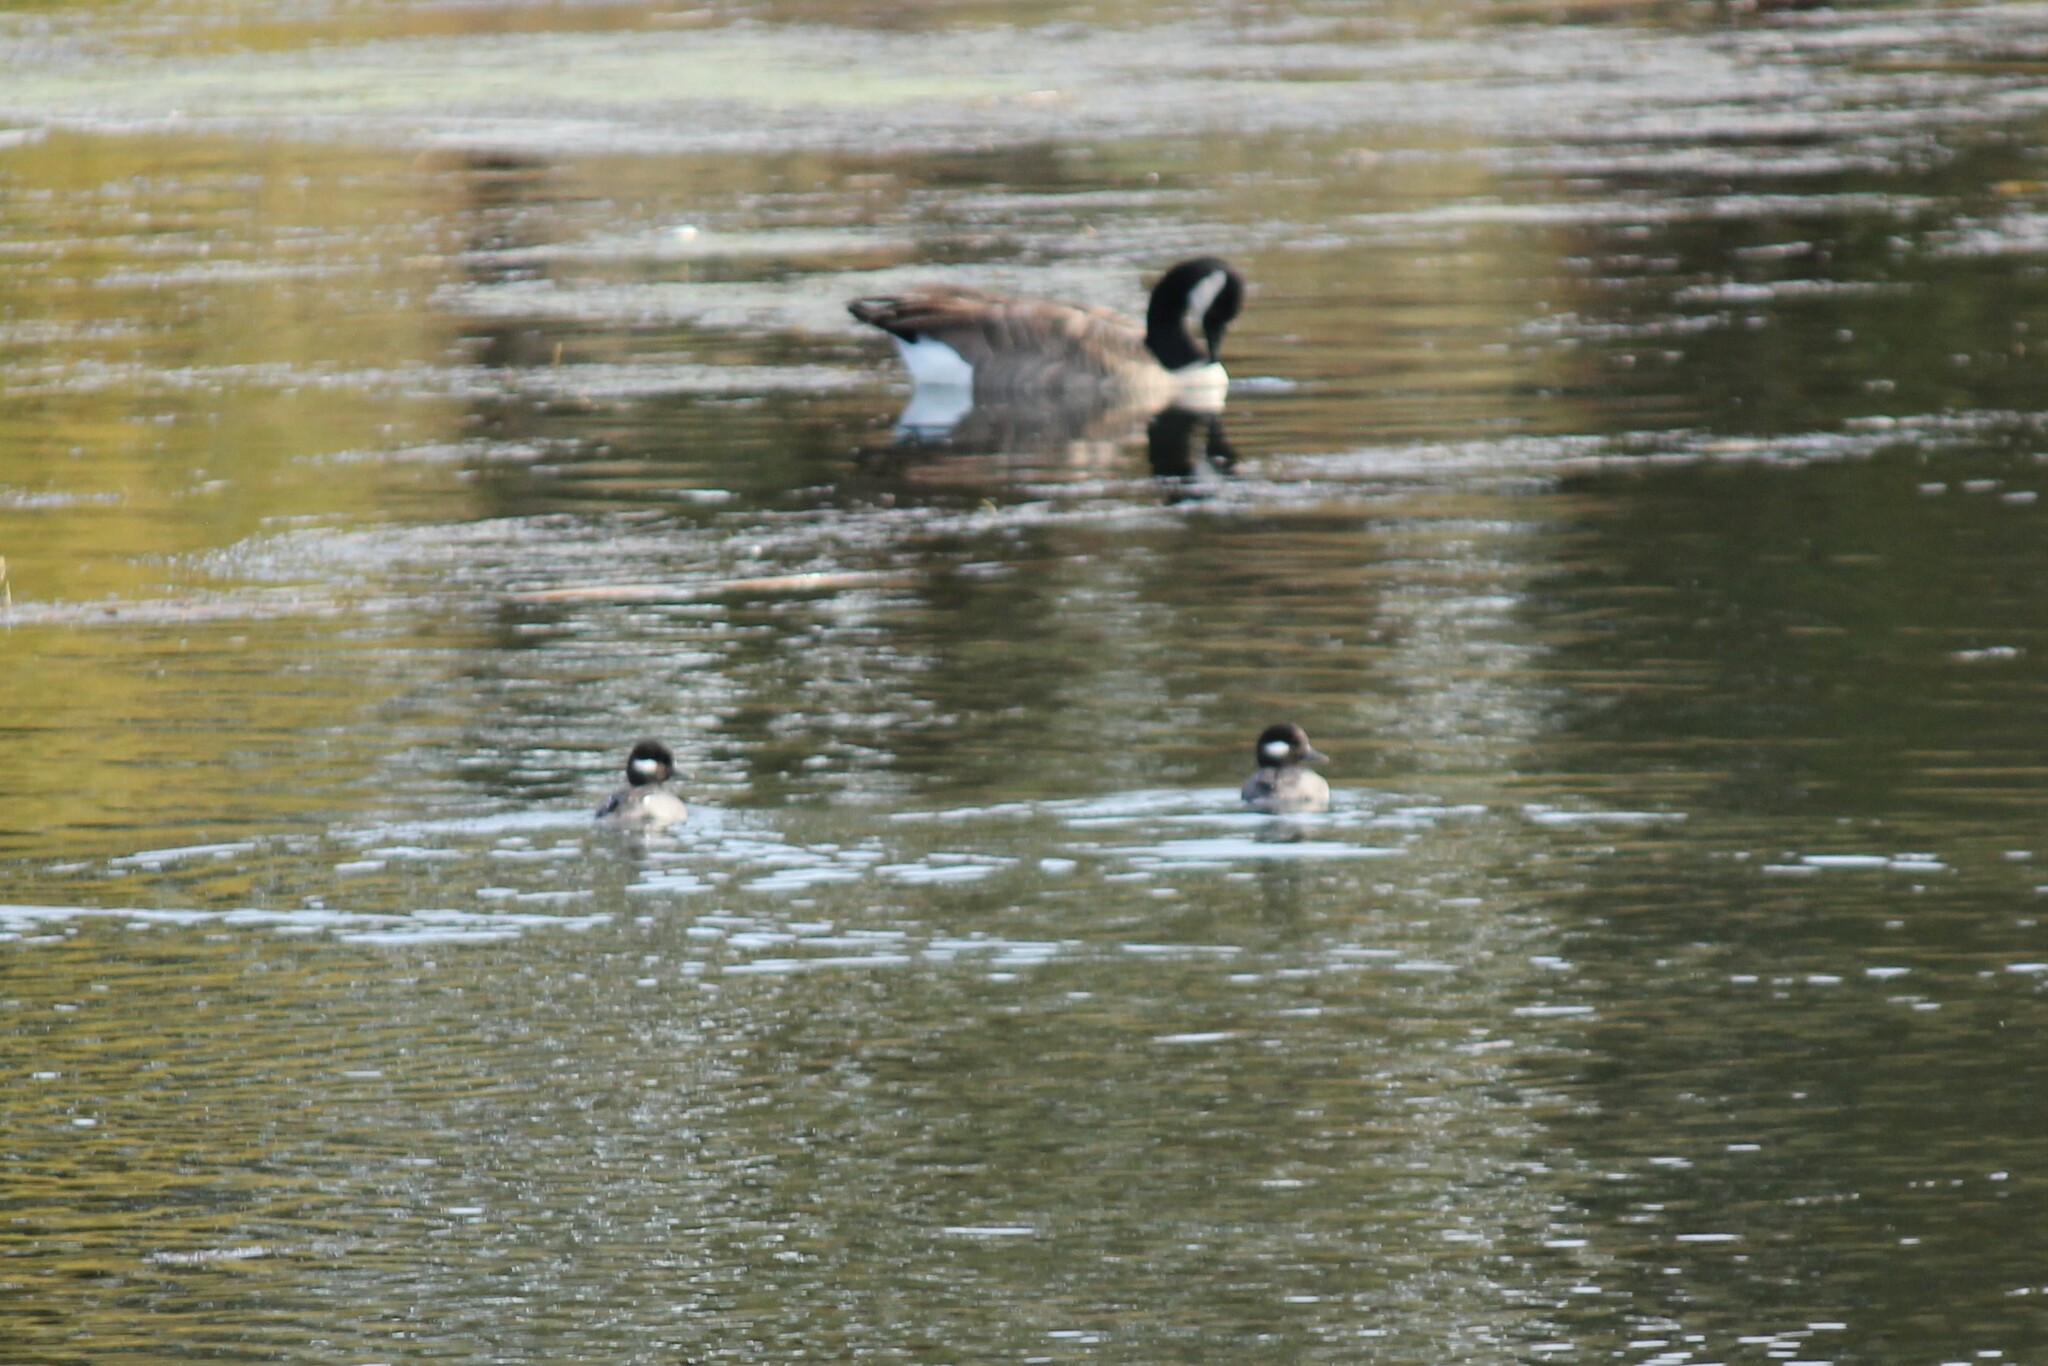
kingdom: Animalia
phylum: Chordata
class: Aves
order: Anseriformes
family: Anatidae
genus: Branta
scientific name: Branta canadensis
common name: Canada goose
